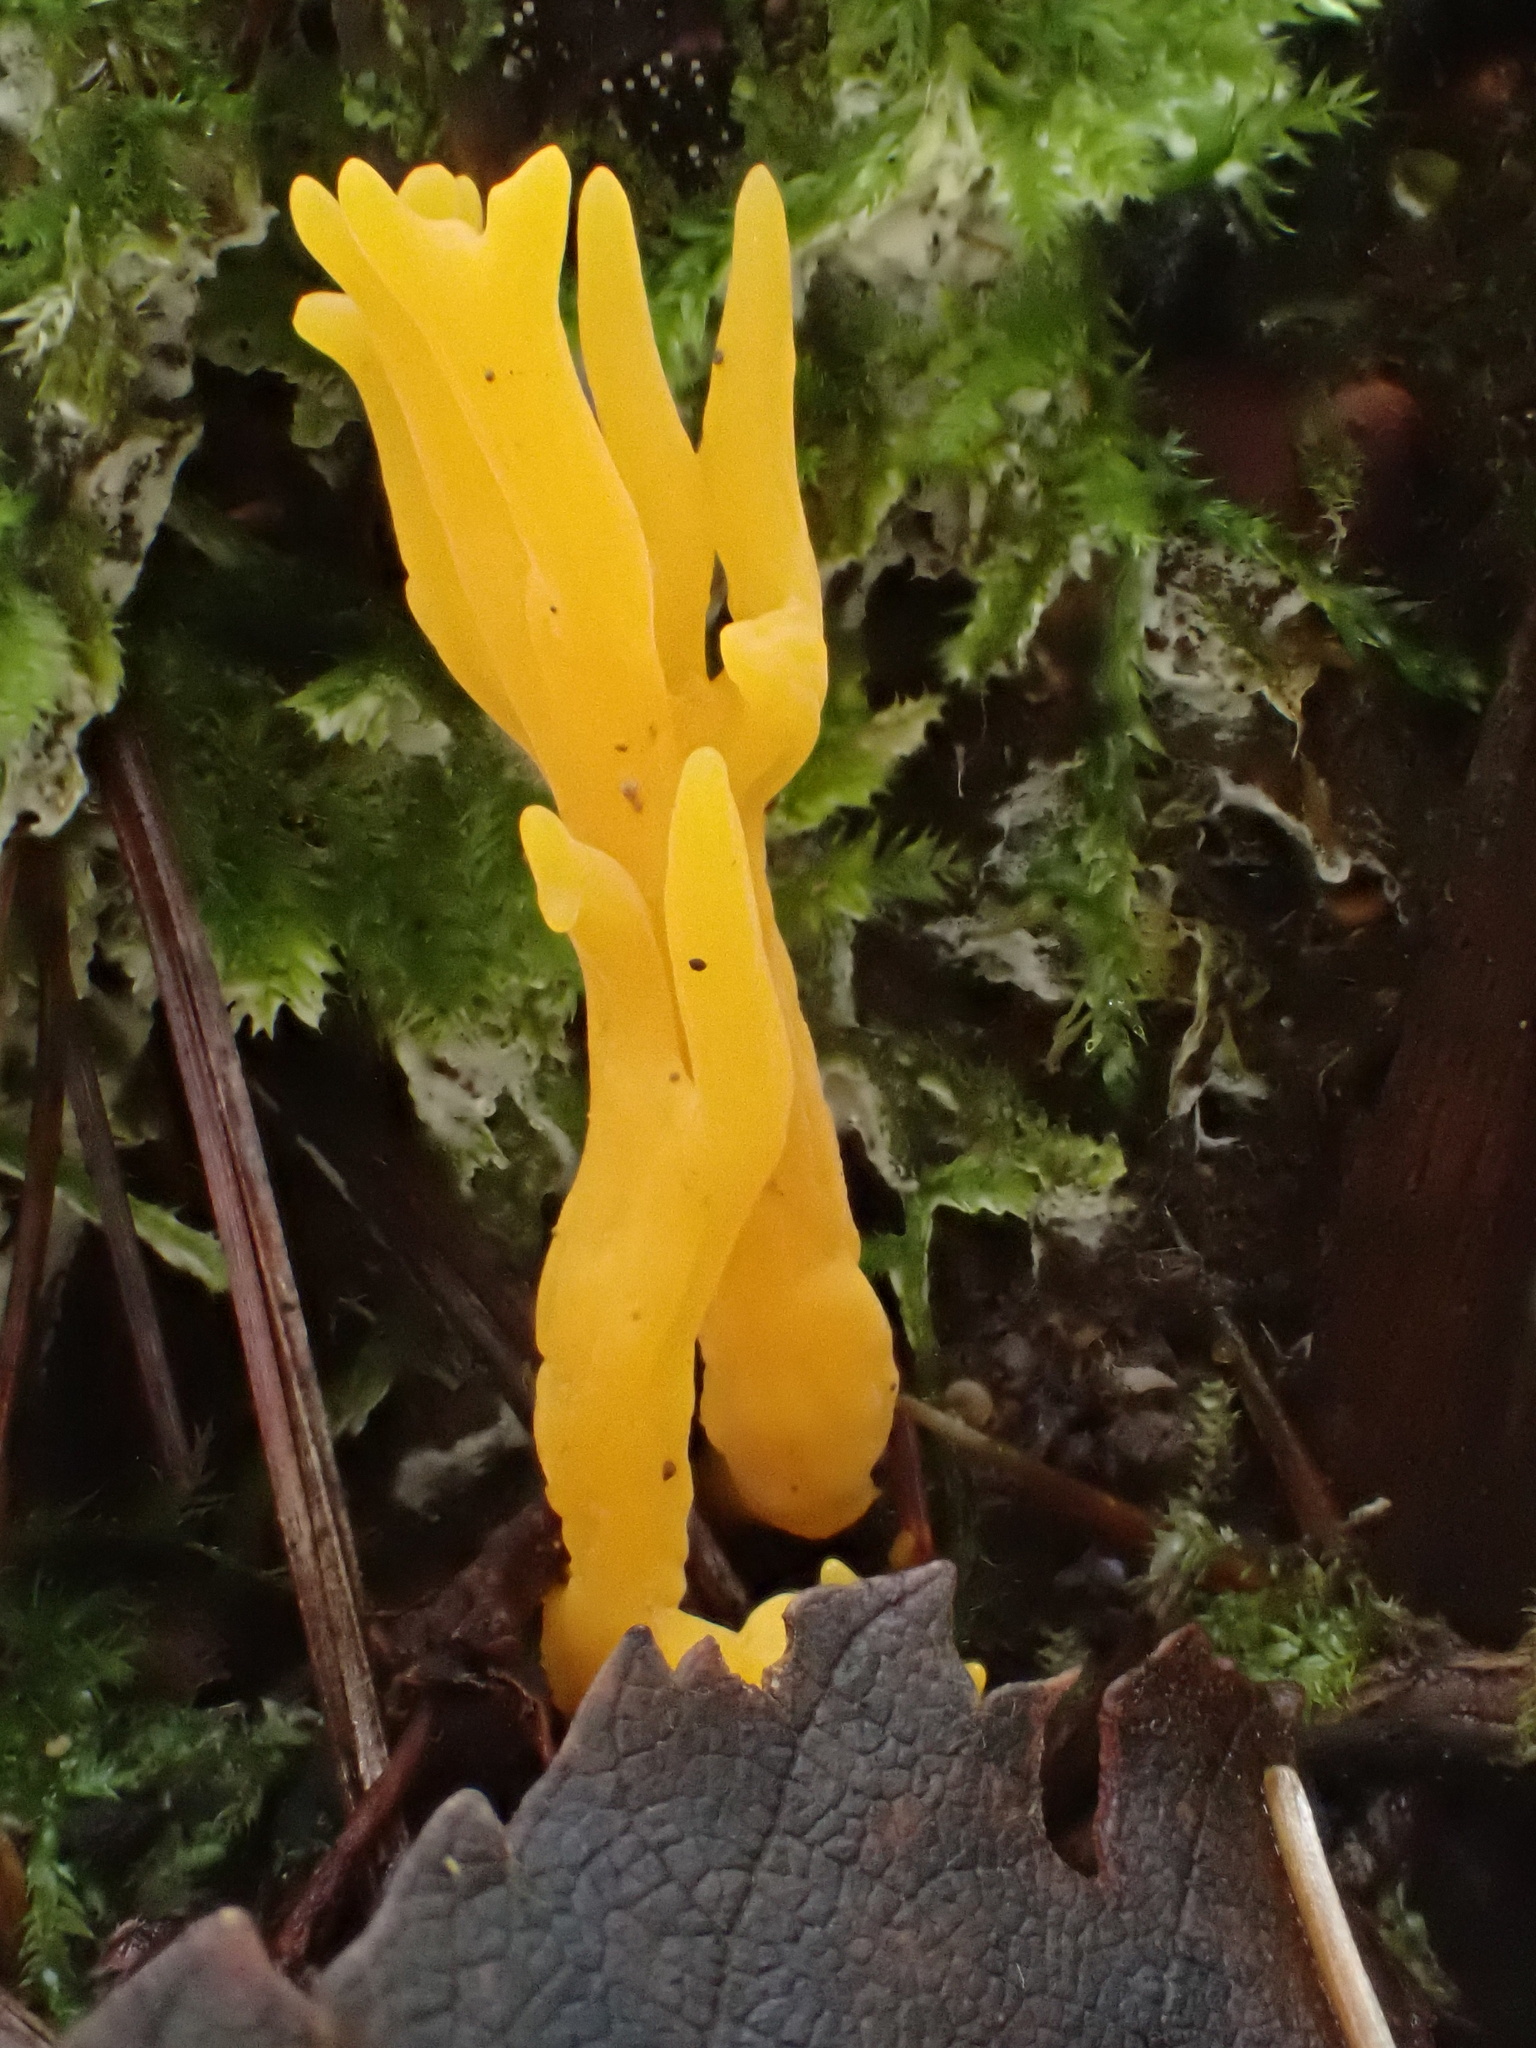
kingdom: Fungi
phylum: Basidiomycota
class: Dacrymycetes
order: Dacrymycetales
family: Dacrymycetaceae
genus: Calocera
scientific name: Calocera viscosa
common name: Yellow stagshorn
